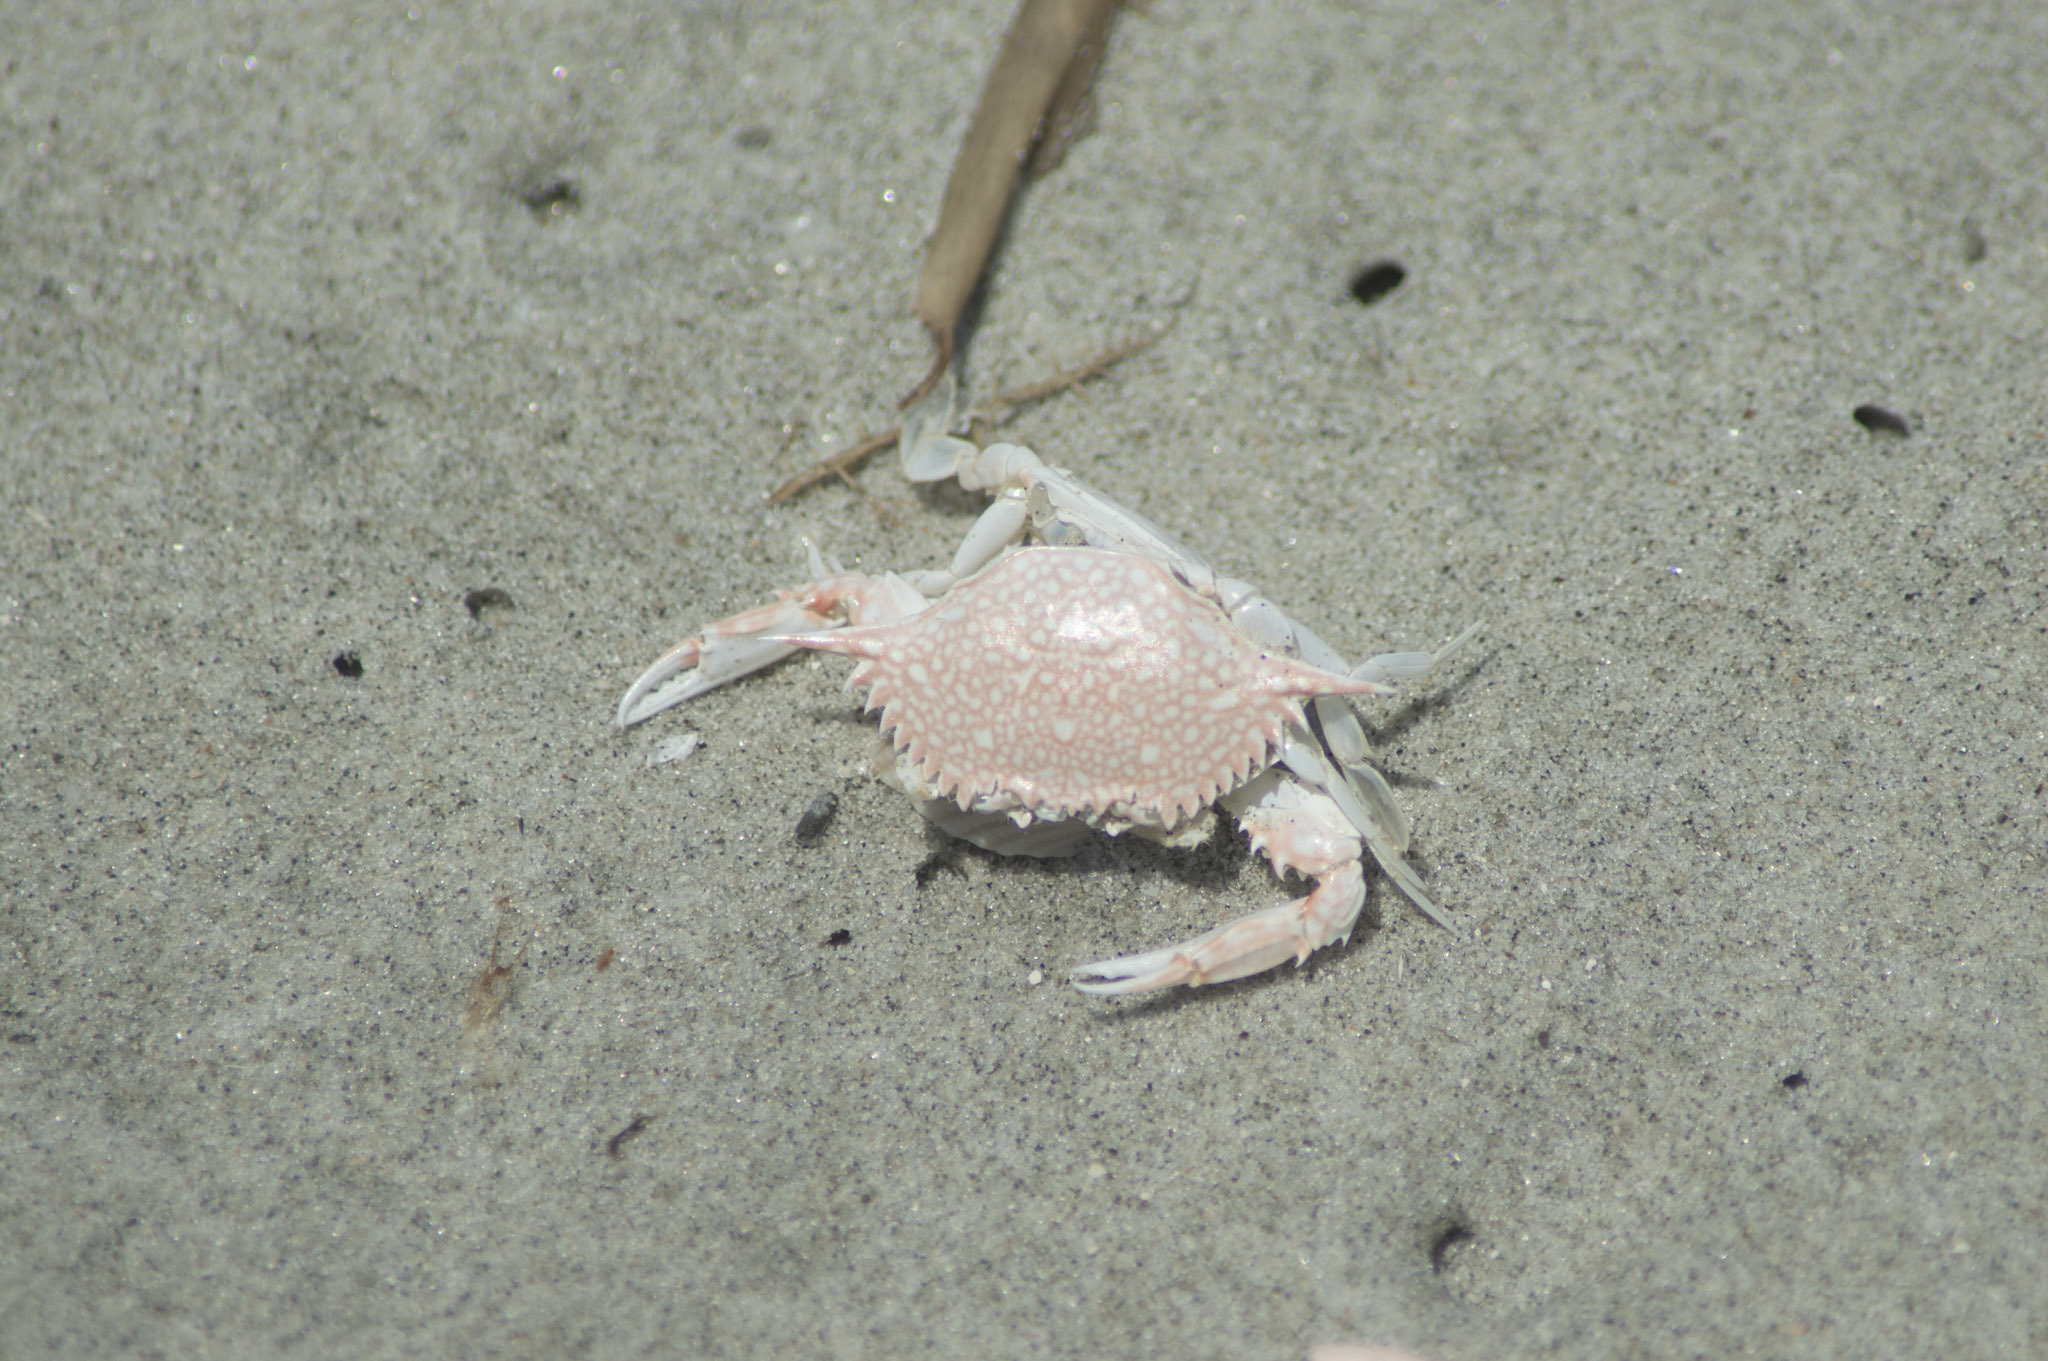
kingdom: Animalia
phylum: Arthropoda
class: Malacostraca
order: Decapoda
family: Portunidae
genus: Arenaeus
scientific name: Arenaeus cribrarius
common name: Speckled crab
